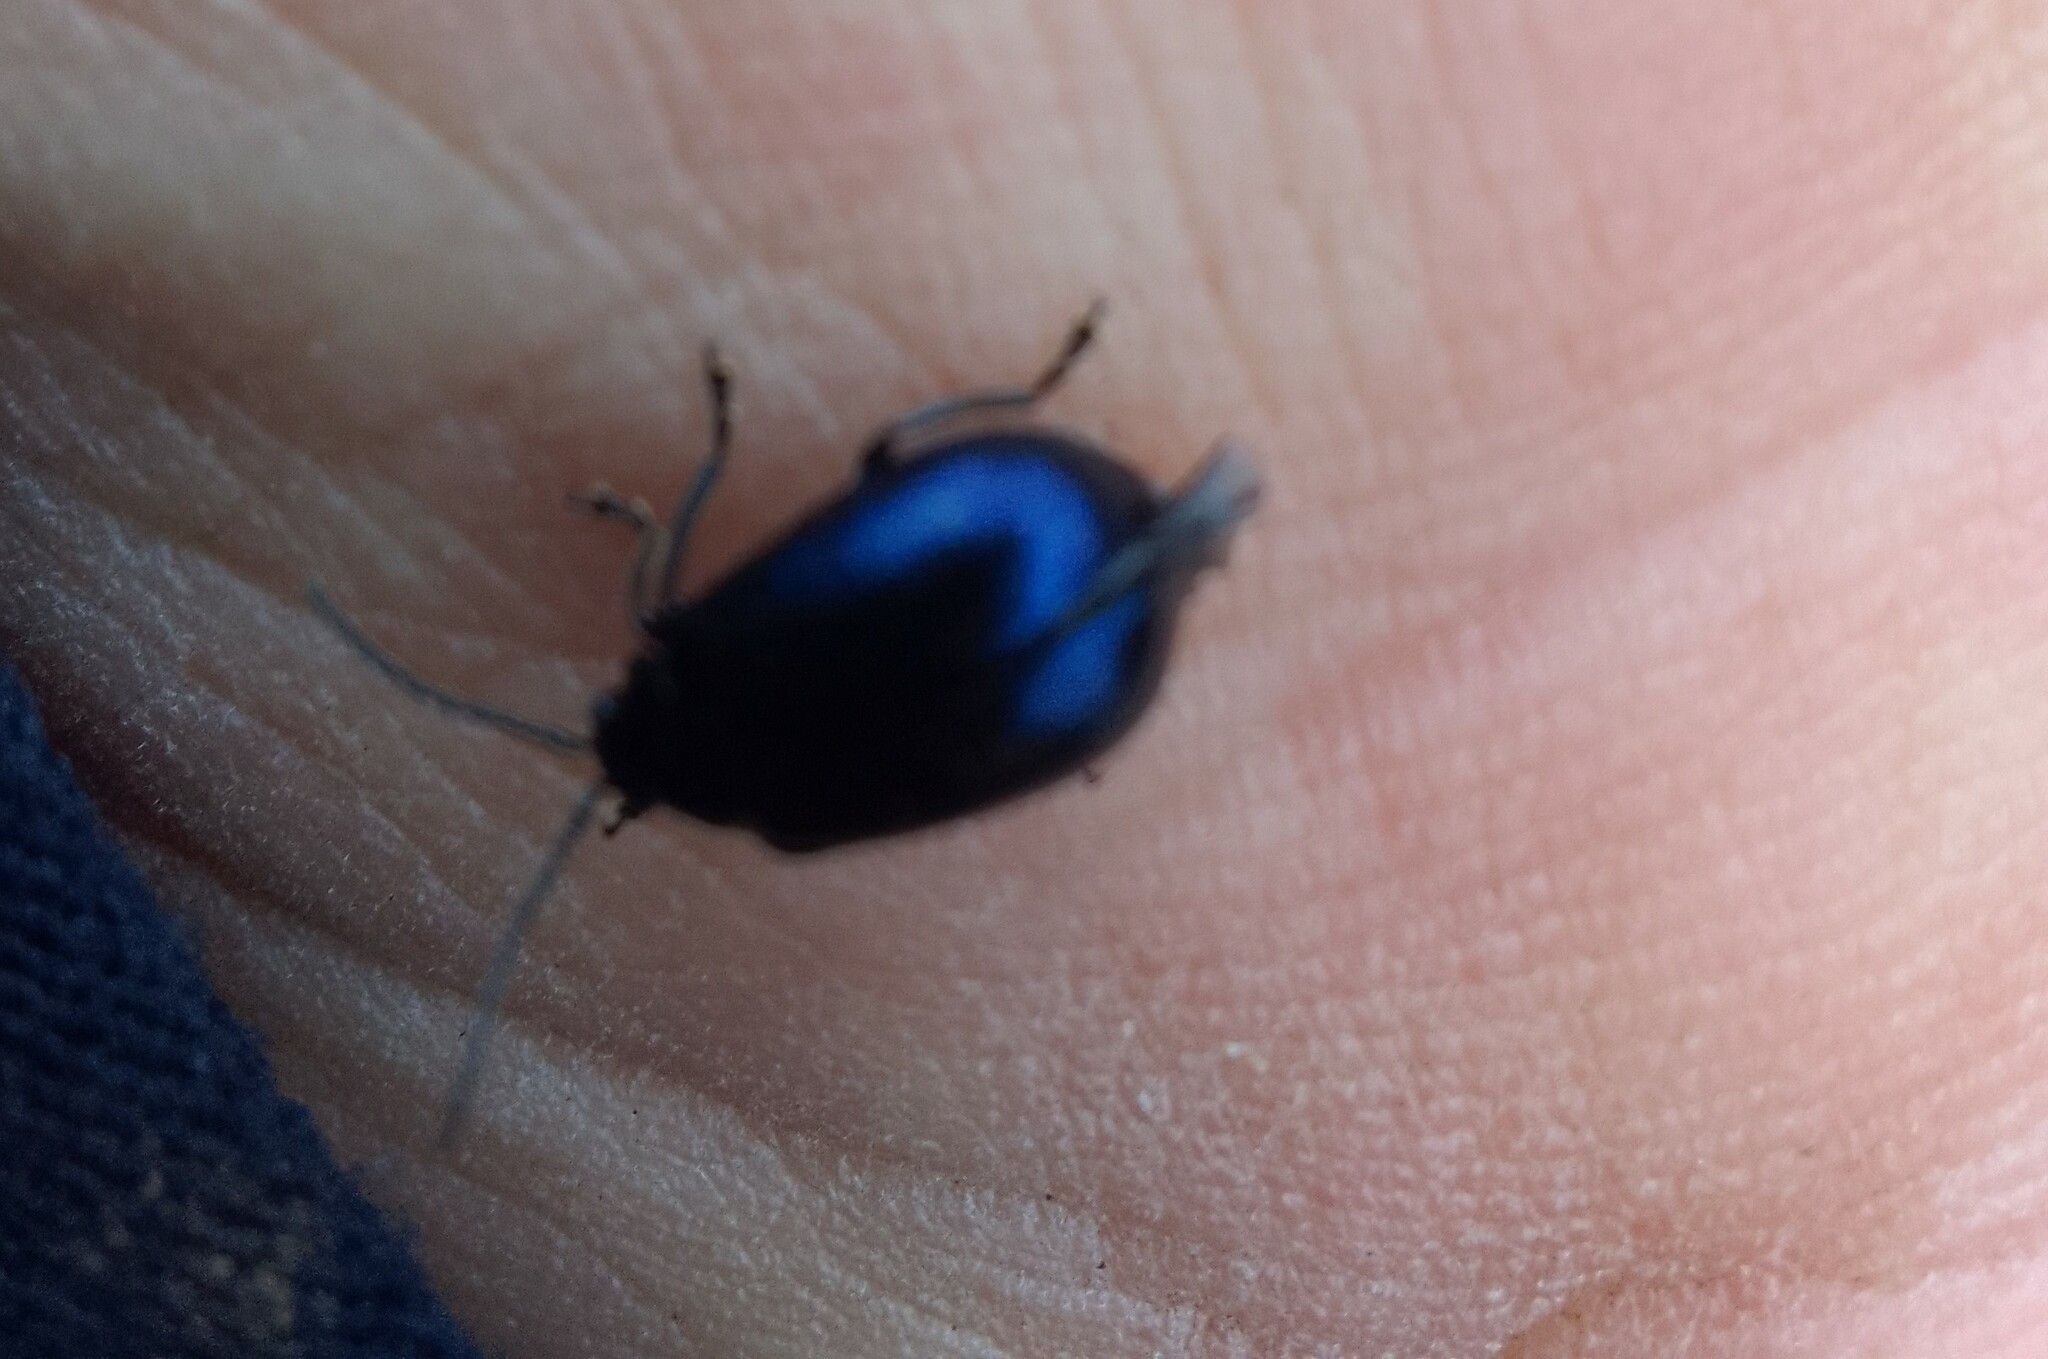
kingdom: Animalia
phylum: Arthropoda
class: Insecta
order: Coleoptera
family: Chrysomelidae
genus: Agelastica
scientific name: Agelastica alni
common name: Alder leaf beetle
